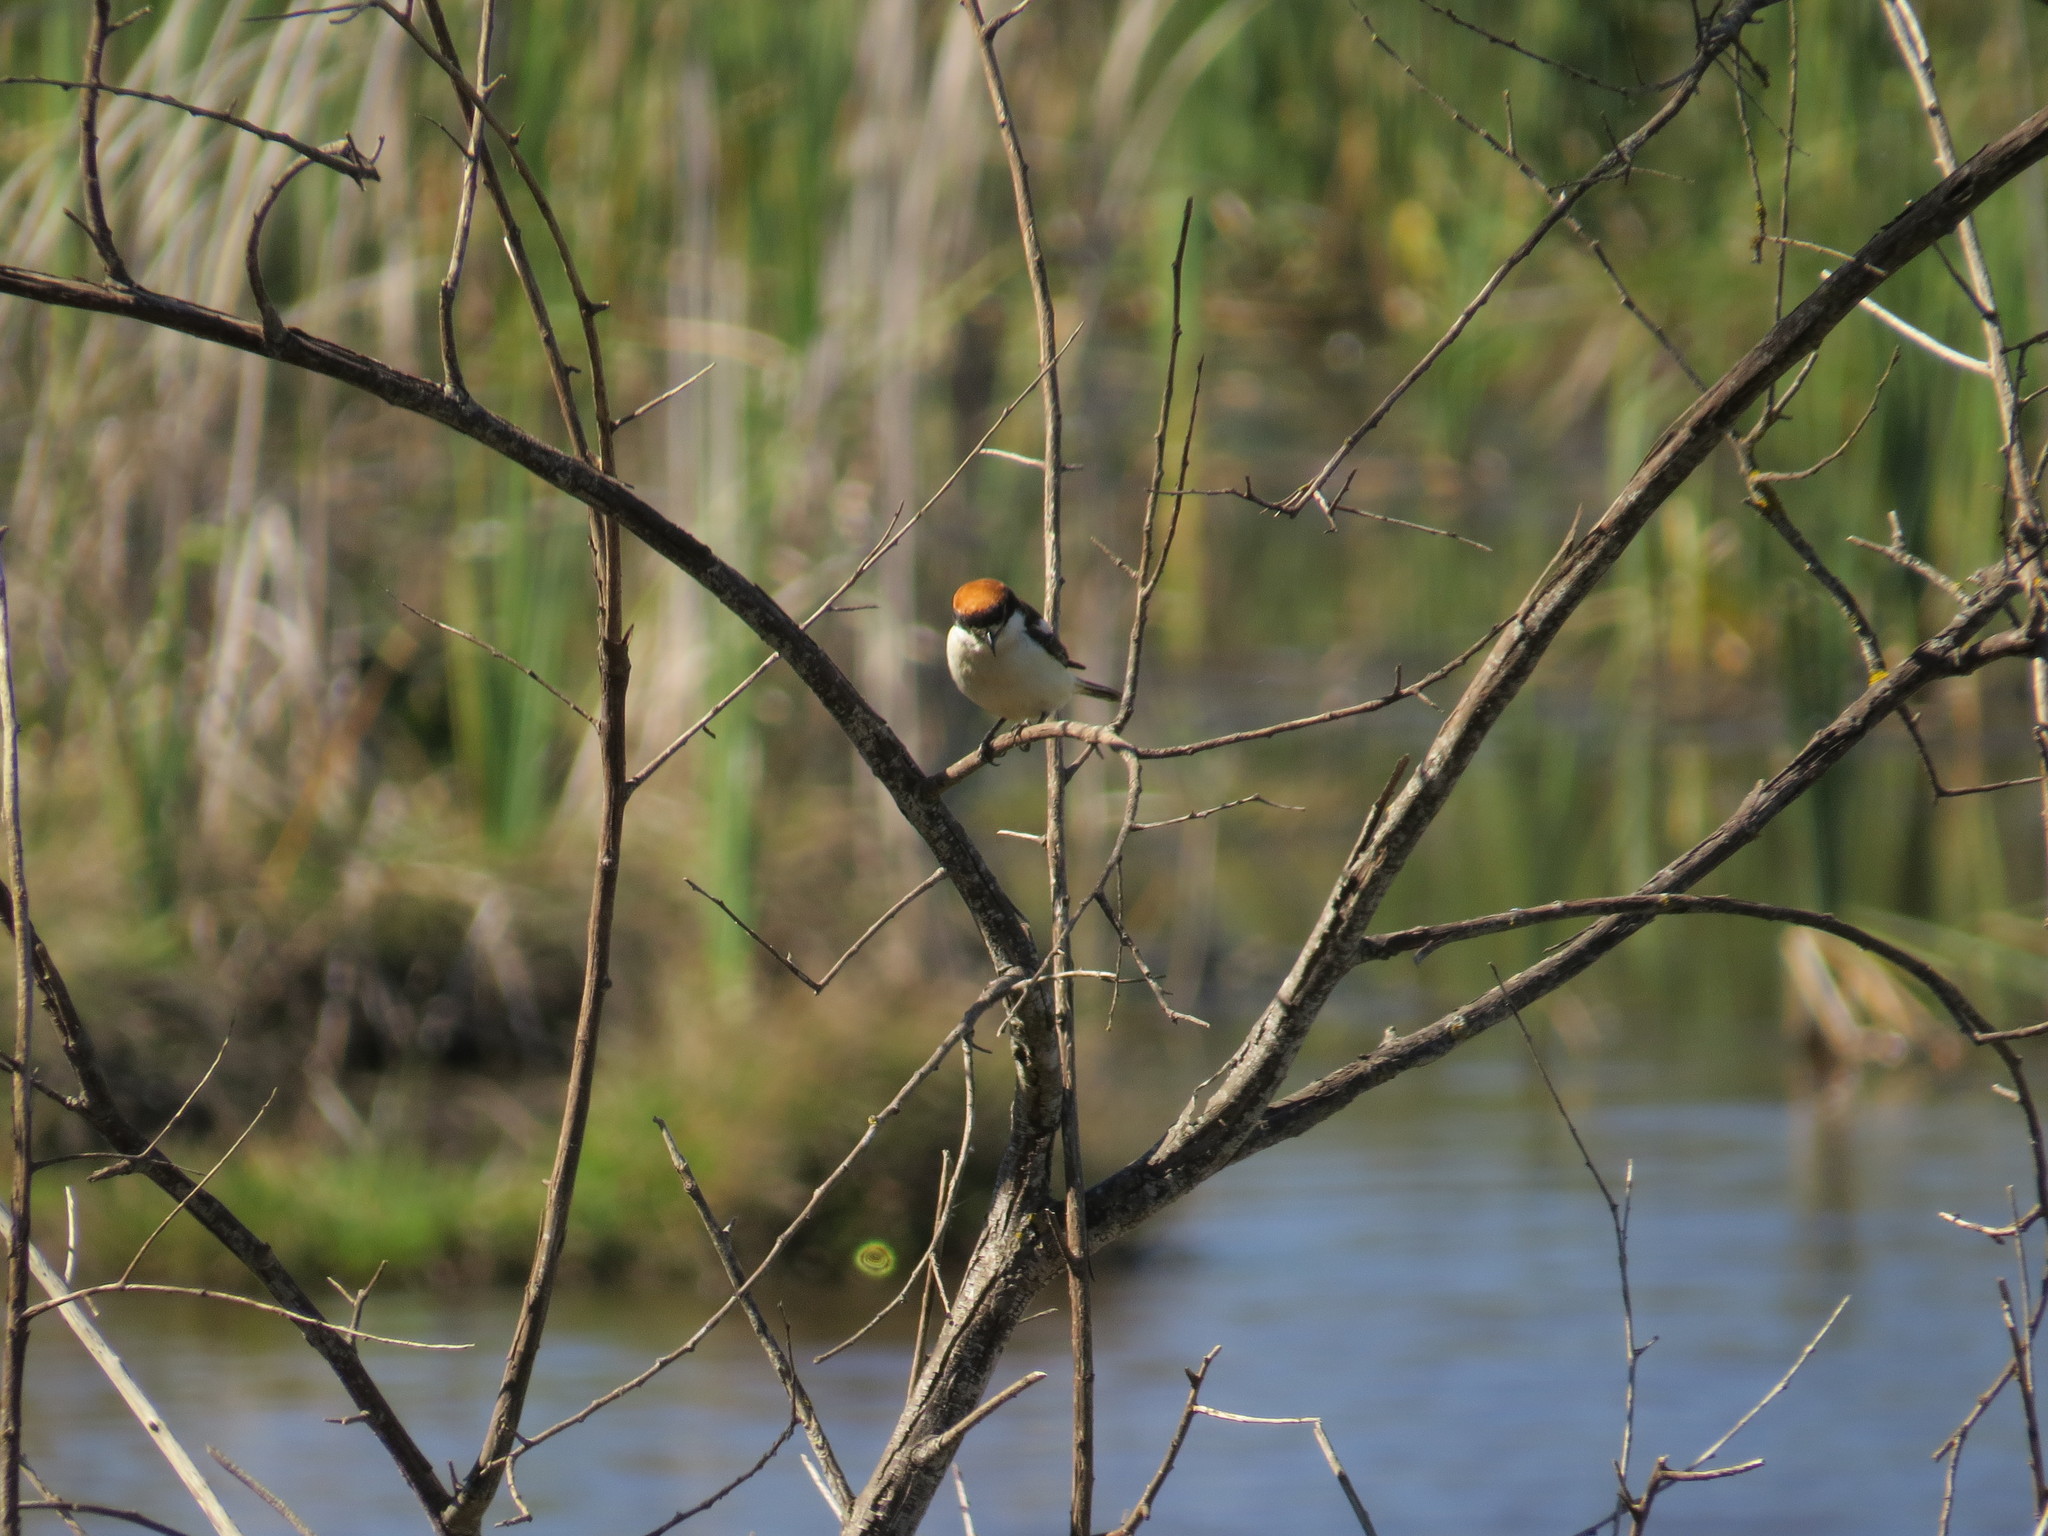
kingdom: Animalia
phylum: Chordata
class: Aves
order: Passeriformes
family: Laniidae
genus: Lanius
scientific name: Lanius senator
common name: Woodchat shrike
